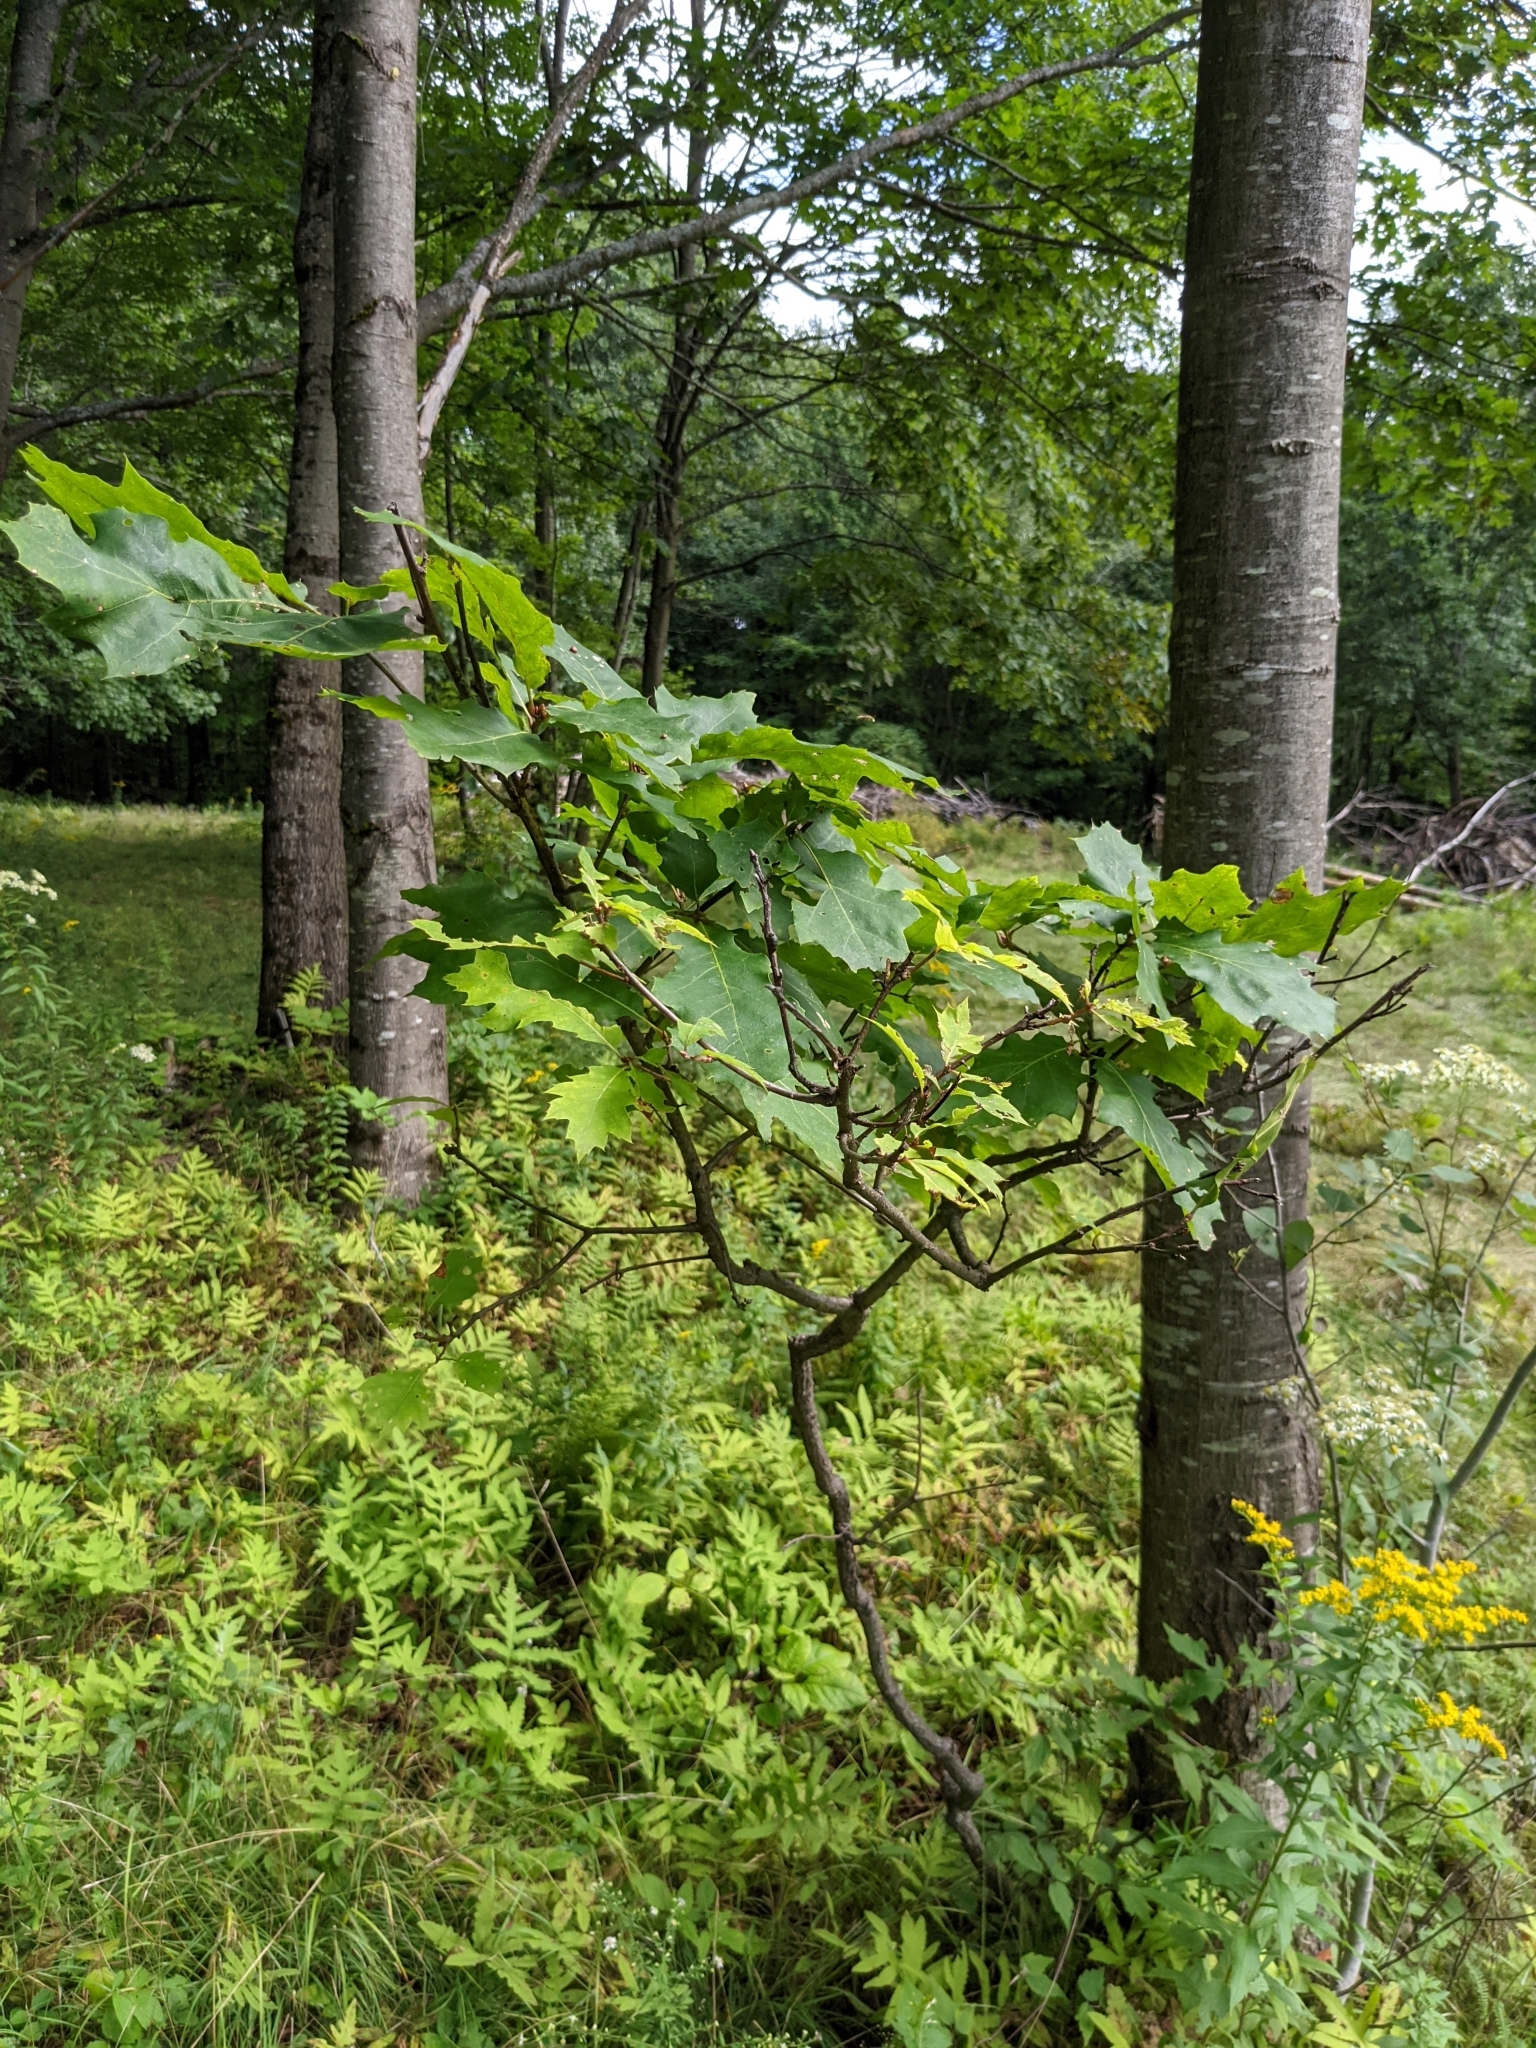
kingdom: Plantae
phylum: Tracheophyta
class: Magnoliopsida
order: Fagales
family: Fagaceae
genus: Quercus
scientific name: Quercus rubra
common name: Red oak
